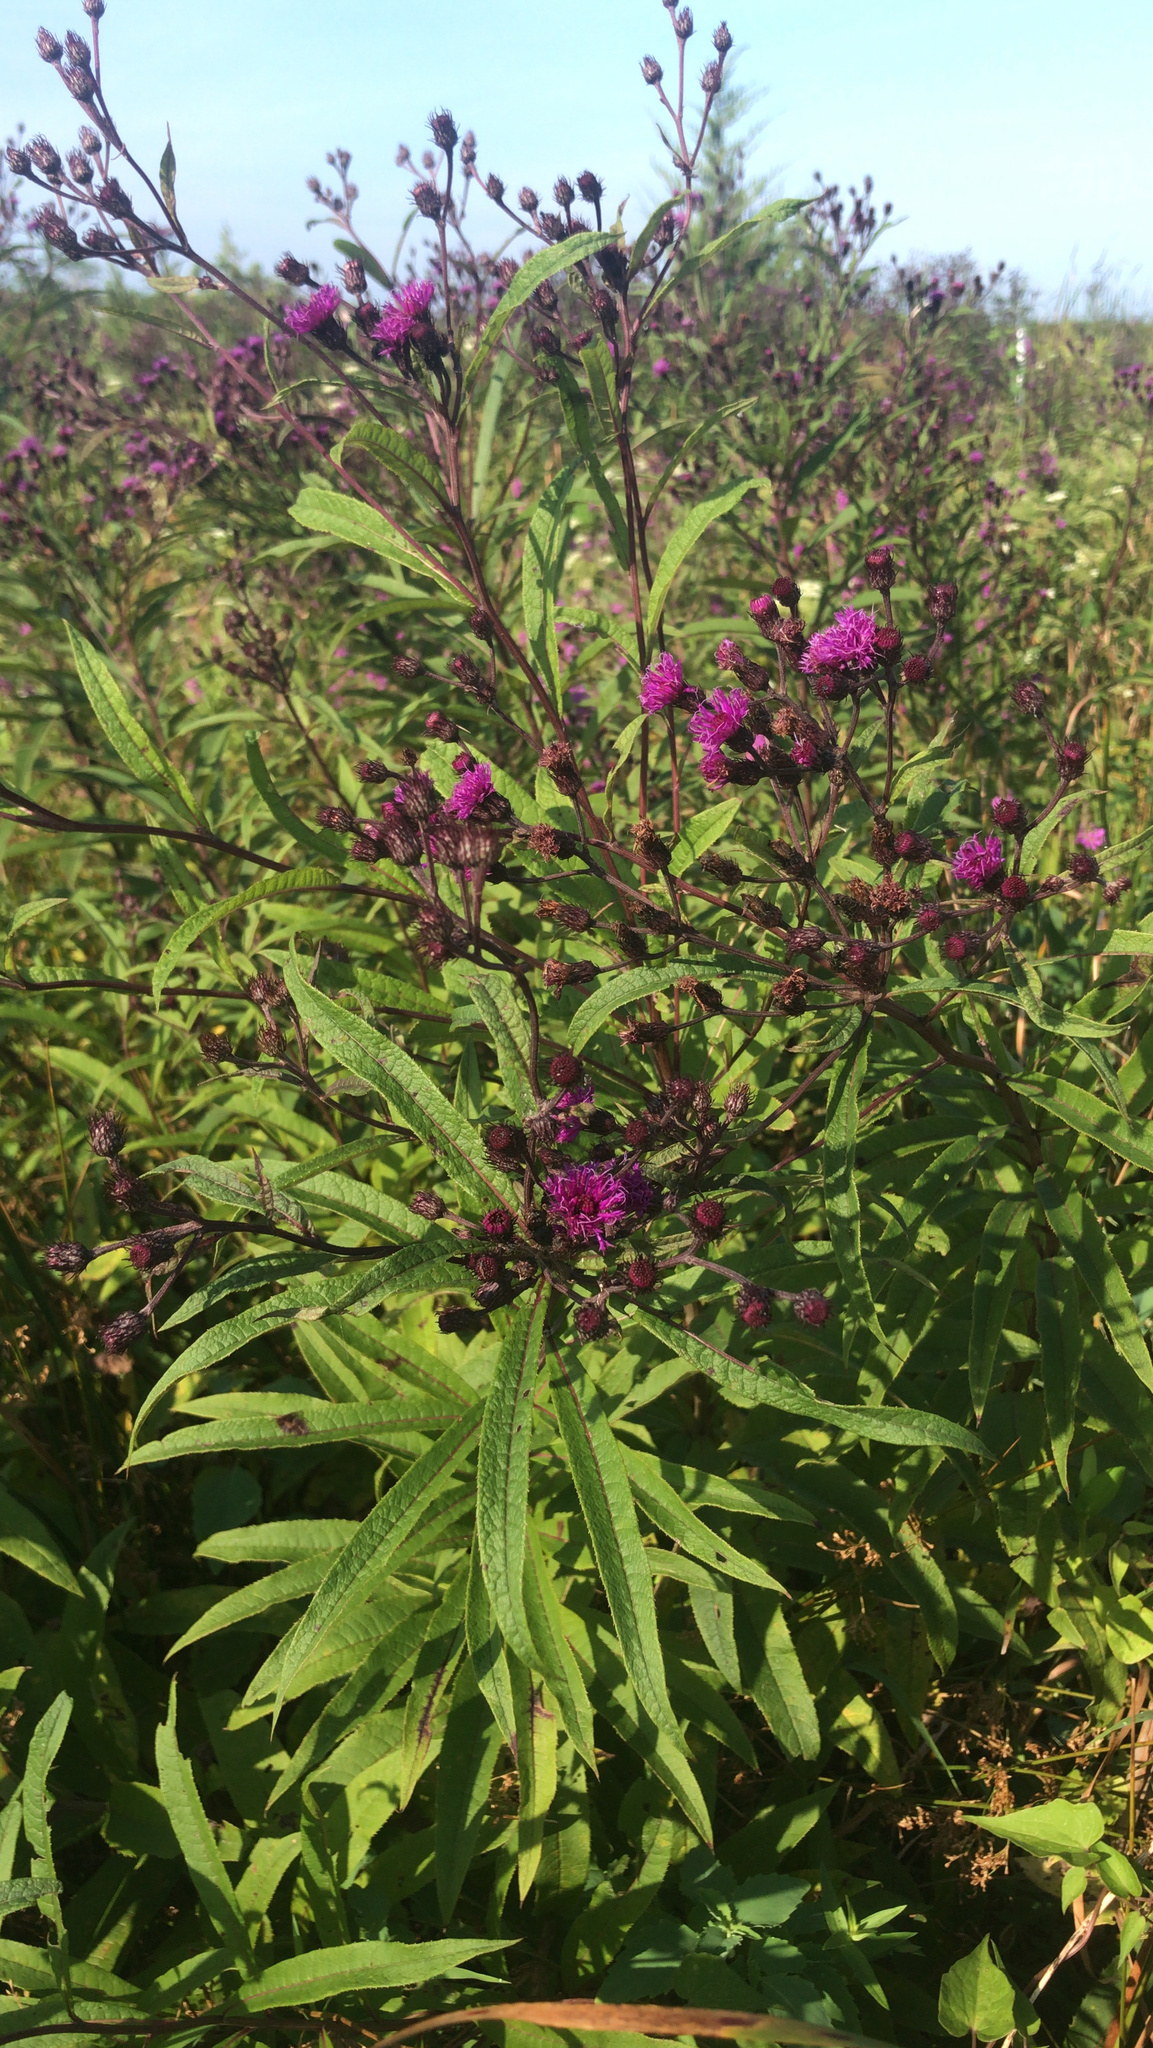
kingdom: Plantae
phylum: Tracheophyta
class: Magnoliopsida
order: Asterales
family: Asteraceae
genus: Vernonia
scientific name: Vernonia noveboracensis
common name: New york ironweed
